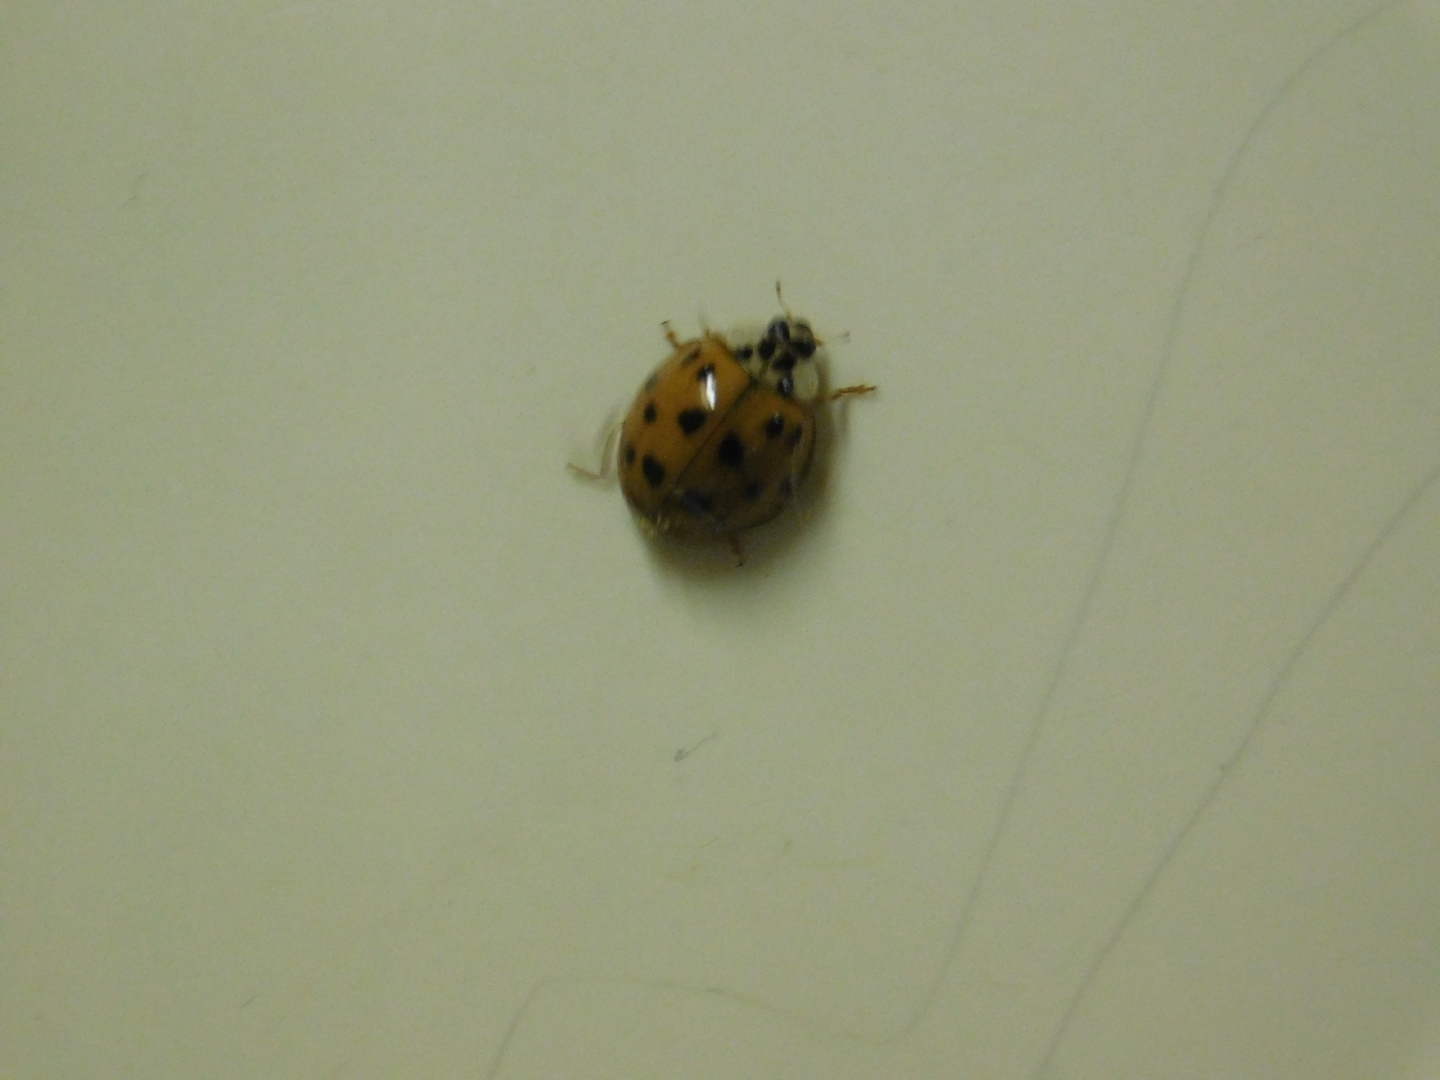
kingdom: Animalia
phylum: Arthropoda
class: Insecta
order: Coleoptera
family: Coccinellidae
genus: Harmonia
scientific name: Harmonia axyridis
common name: Harlequin ladybird
